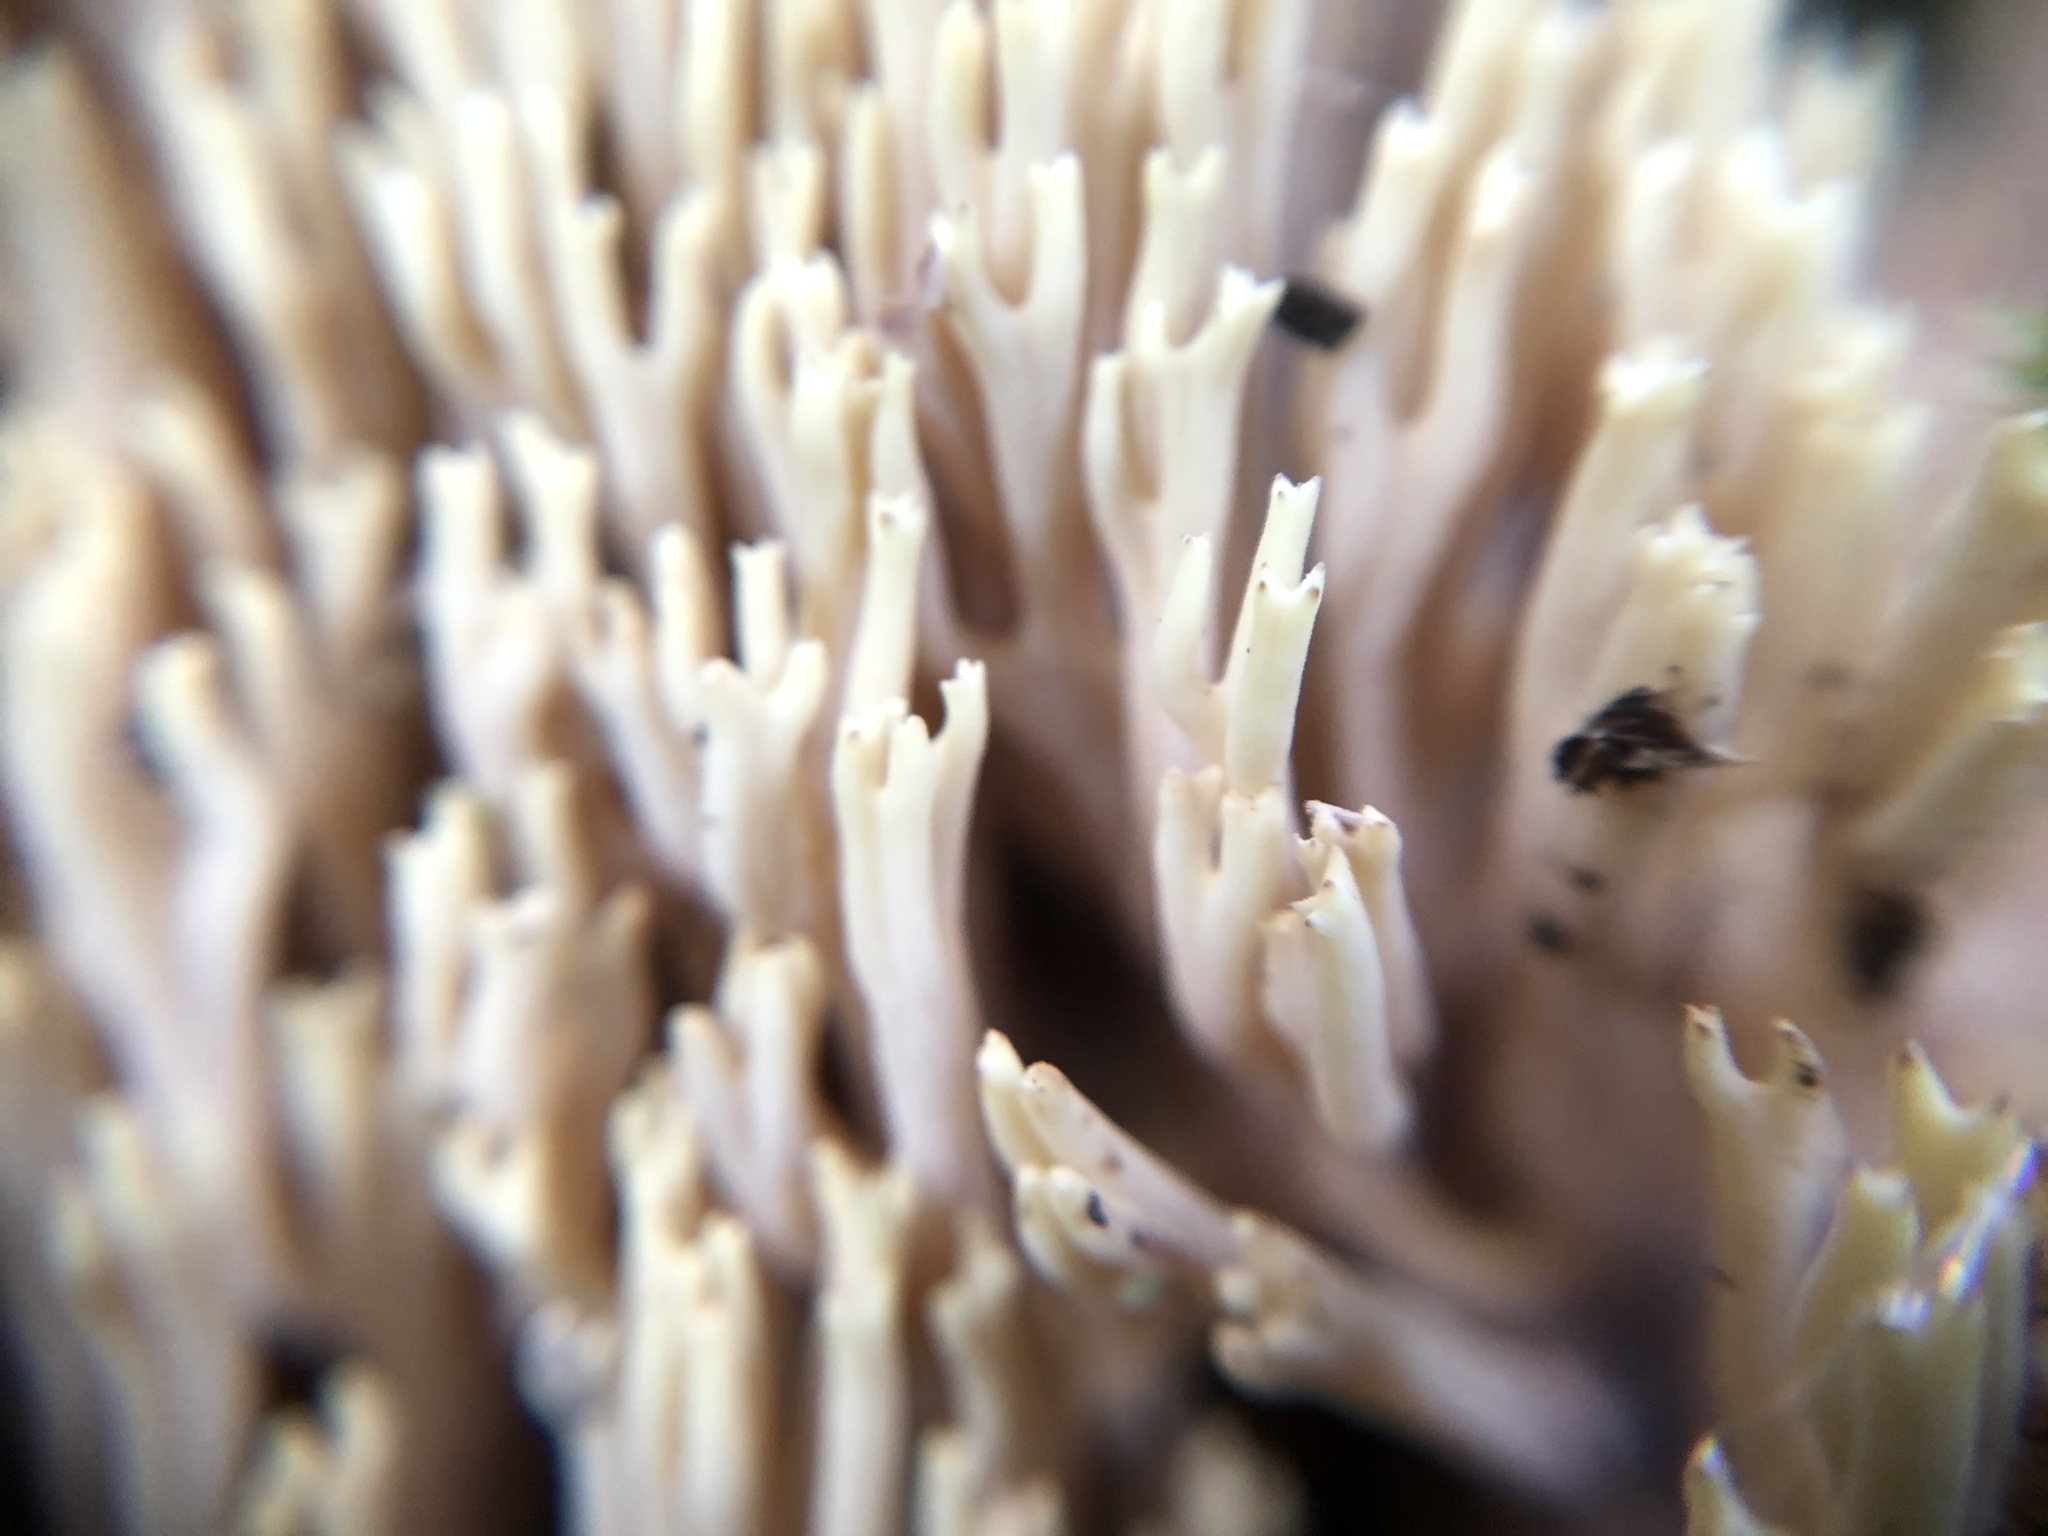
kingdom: Fungi
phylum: Basidiomycota
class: Agaricomycetes
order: Gomphales
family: Gomphaceae
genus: Ramaria
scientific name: Ramaria stricta
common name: Upright coral
